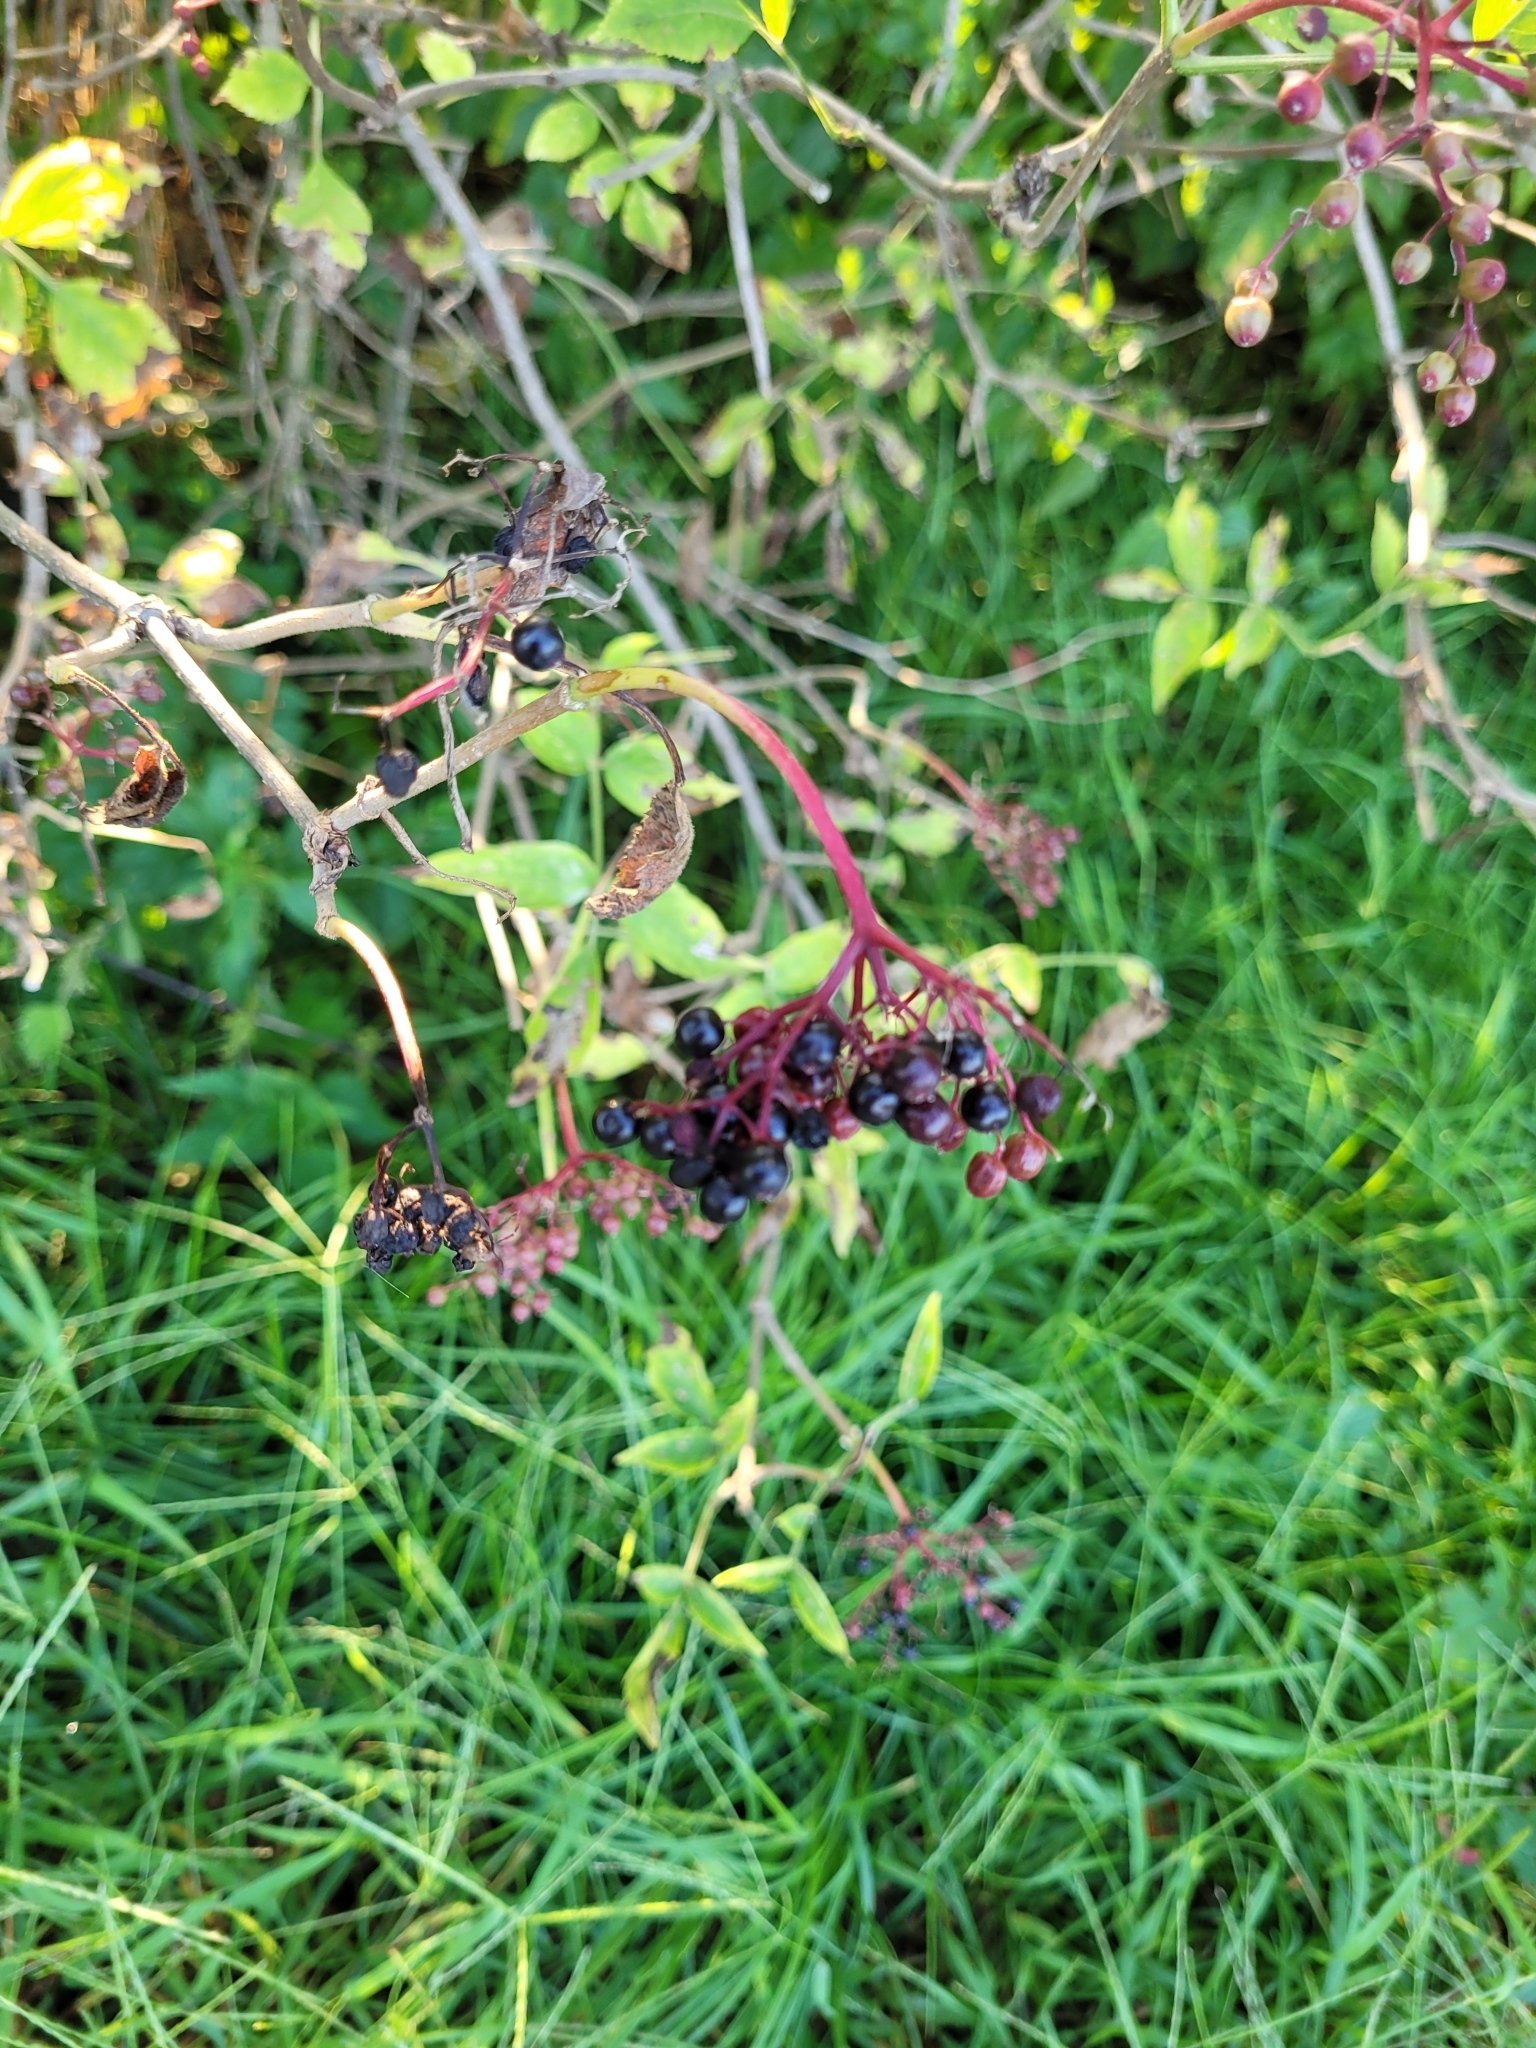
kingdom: Plantae
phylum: Tracheophyta
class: Magnoliopsida
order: Dipsacales
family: Viburnaceae
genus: Sambucus
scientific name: Sambucus nigra
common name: Elder
